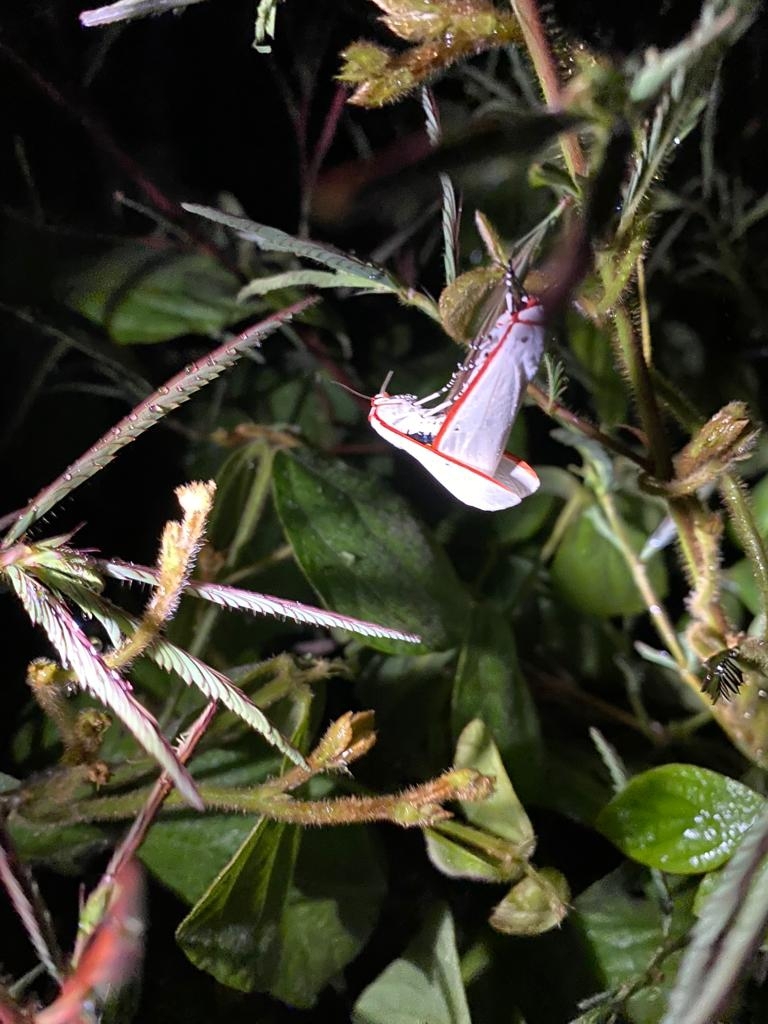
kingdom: Animalia
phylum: Arthropoda
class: Insecta
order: Lepidoptera
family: Erebidae
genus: Aloa
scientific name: Aloa lactinea
